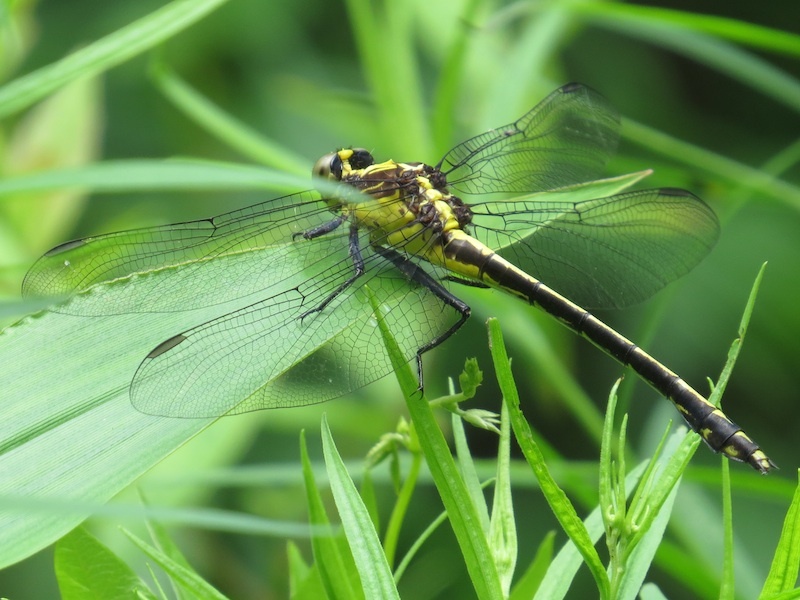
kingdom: Animalia
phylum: Arthropoda
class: Insecta
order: Odonata
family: Gomphidae
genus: Dromogomphus
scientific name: Dromogomphus spinosus
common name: Black-shouldered spinyleg
